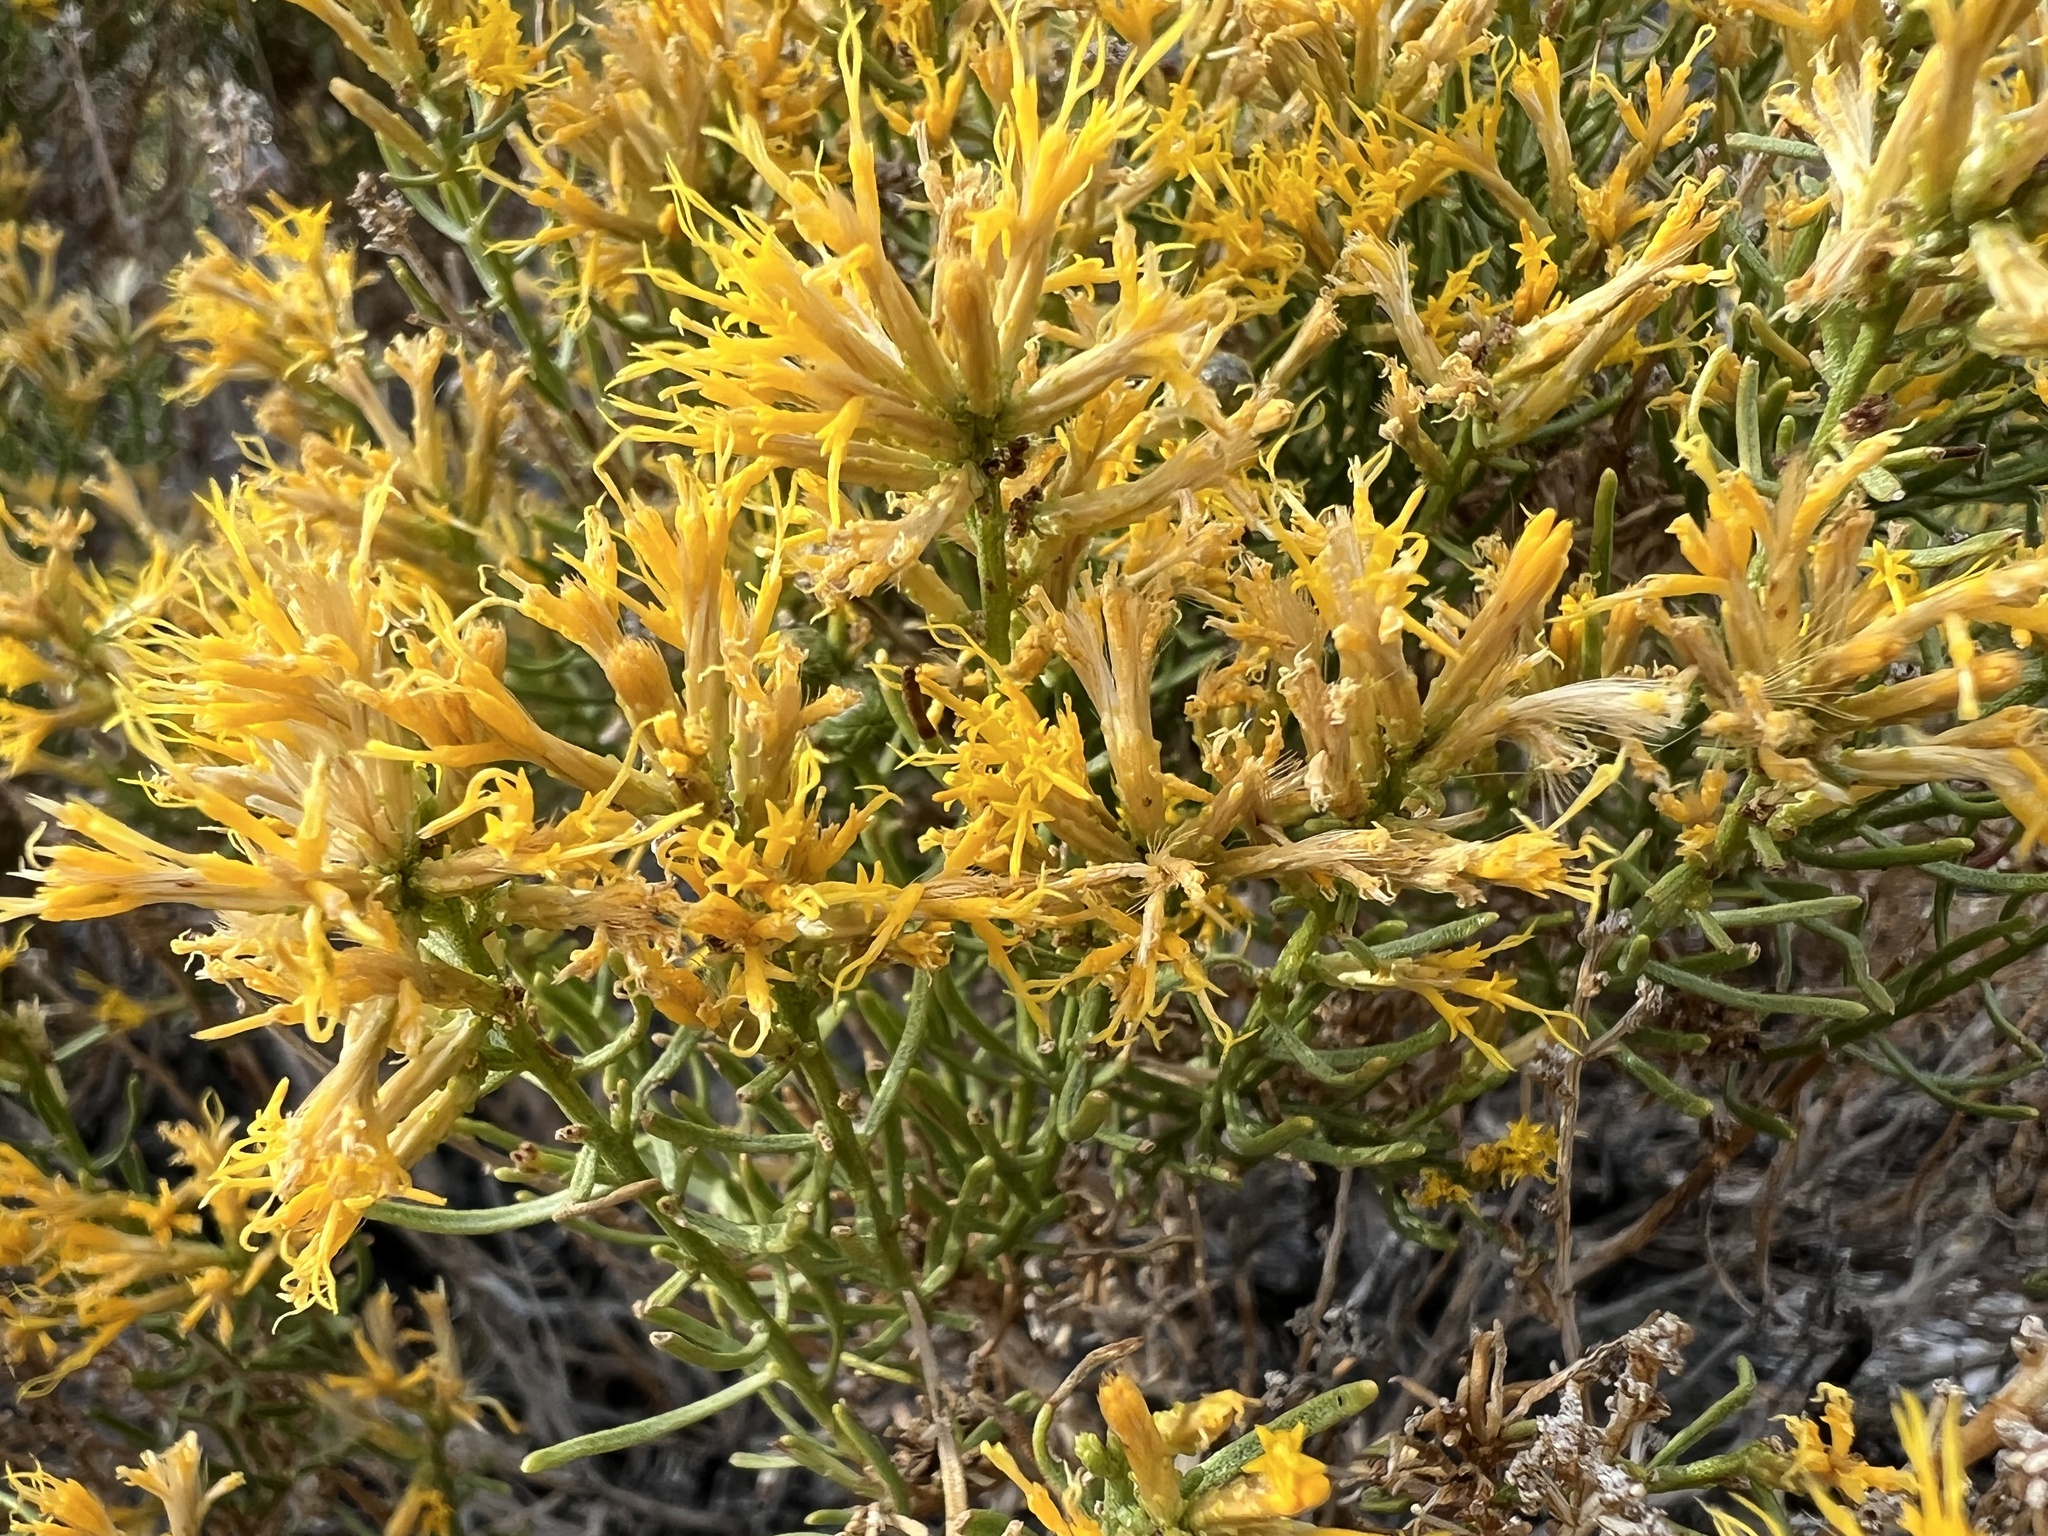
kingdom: Plantae
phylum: Tracheophyta
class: Magnoliopsida
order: Asterales
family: Asteraceae
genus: Ericameria
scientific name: Ericameria teretifolia
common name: Round-leaf rabbitbrush
